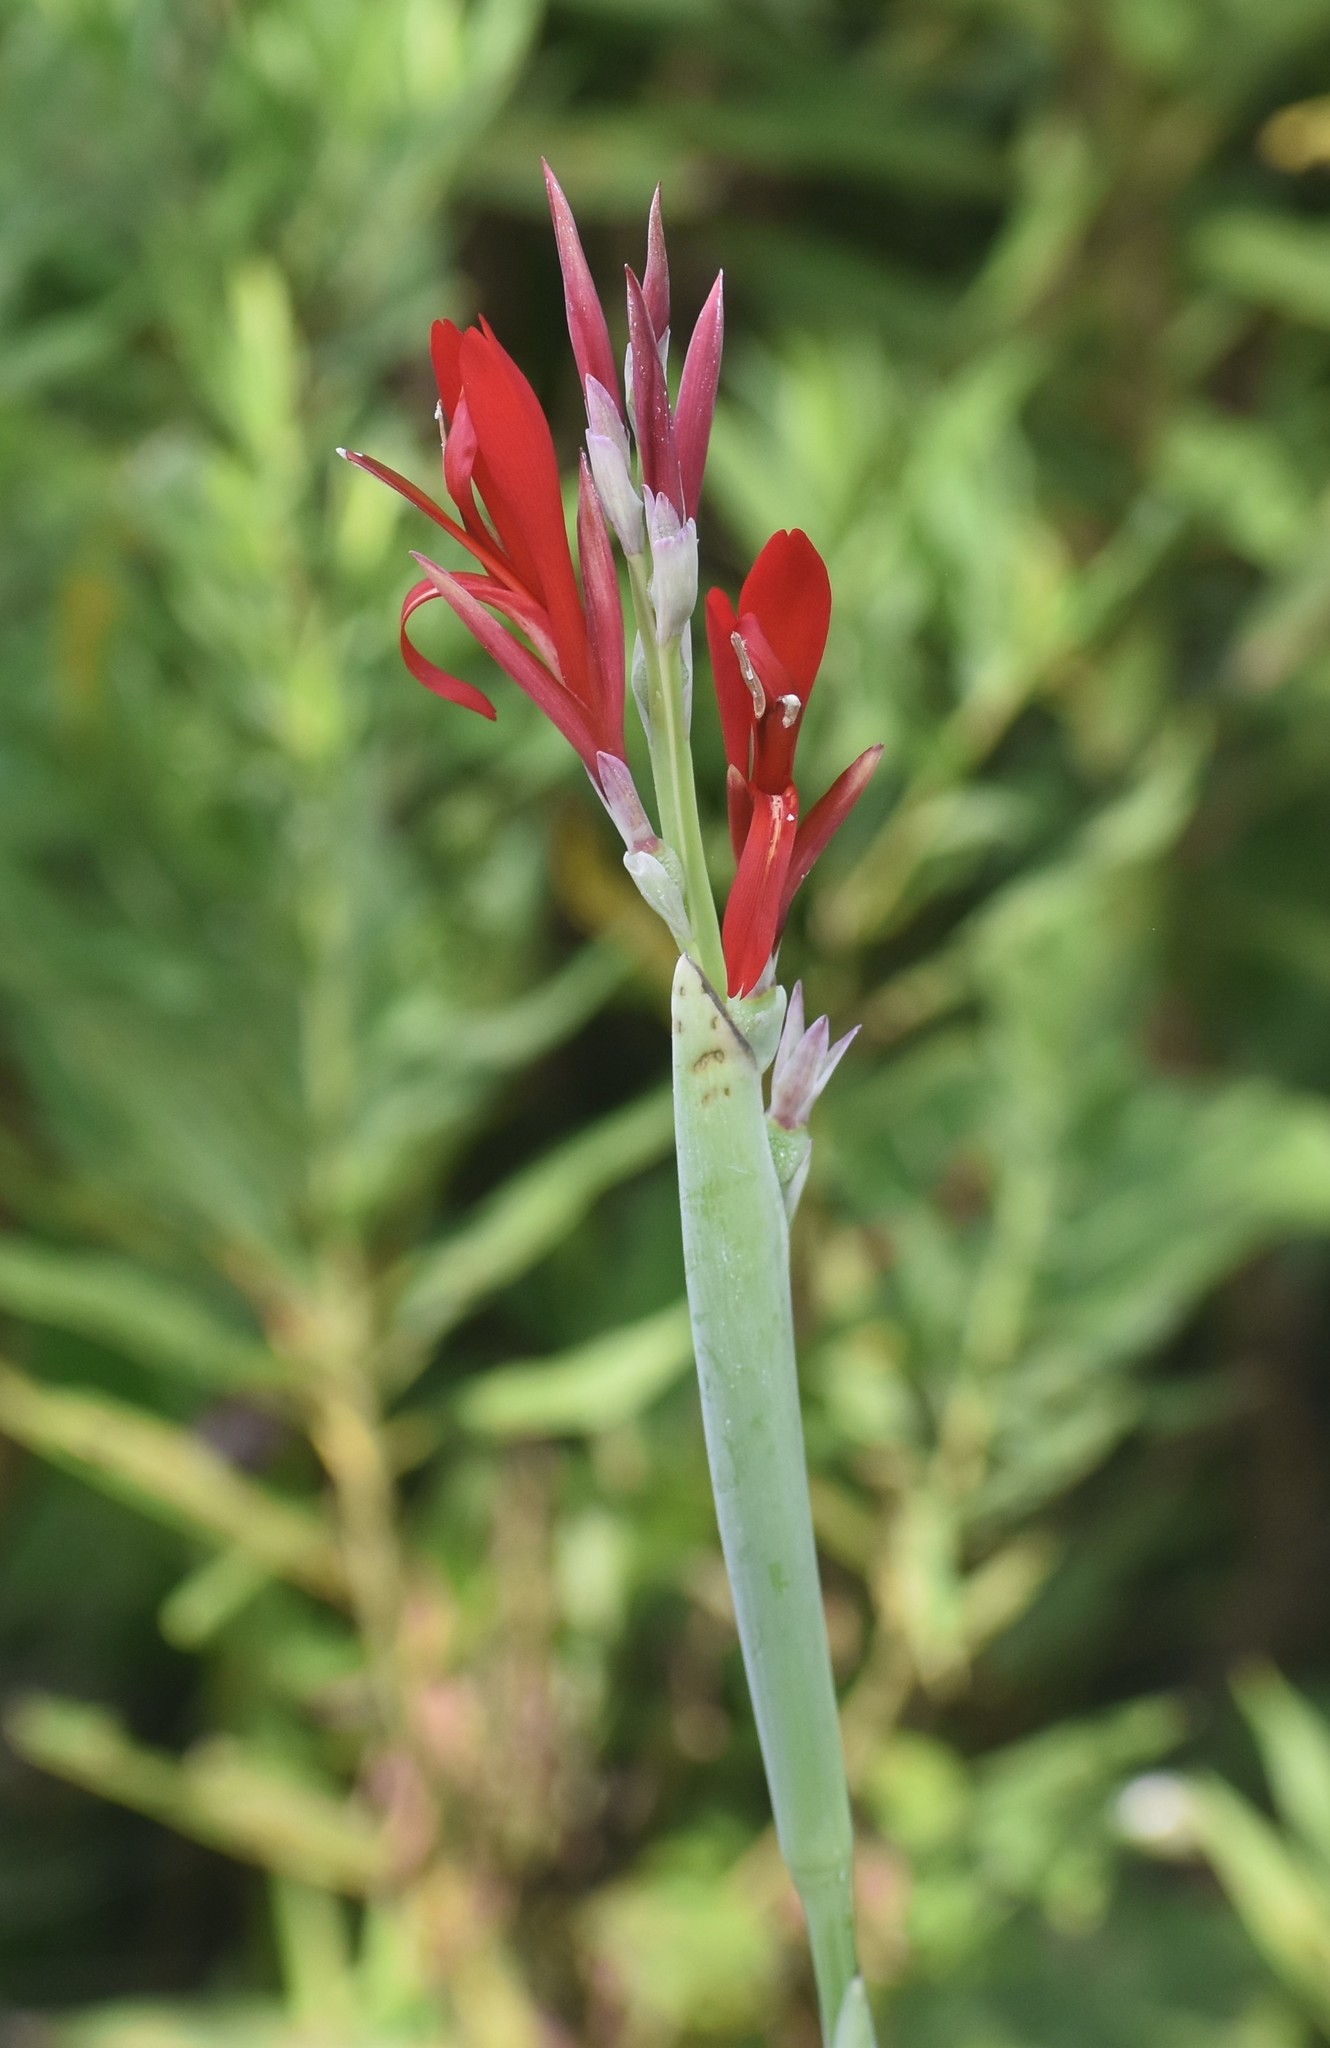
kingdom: Plantae
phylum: Tracheophyta
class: Liliopsida
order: Zingiberales
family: Cannaceae
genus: Canna
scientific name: Canna indica
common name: Indian shot
